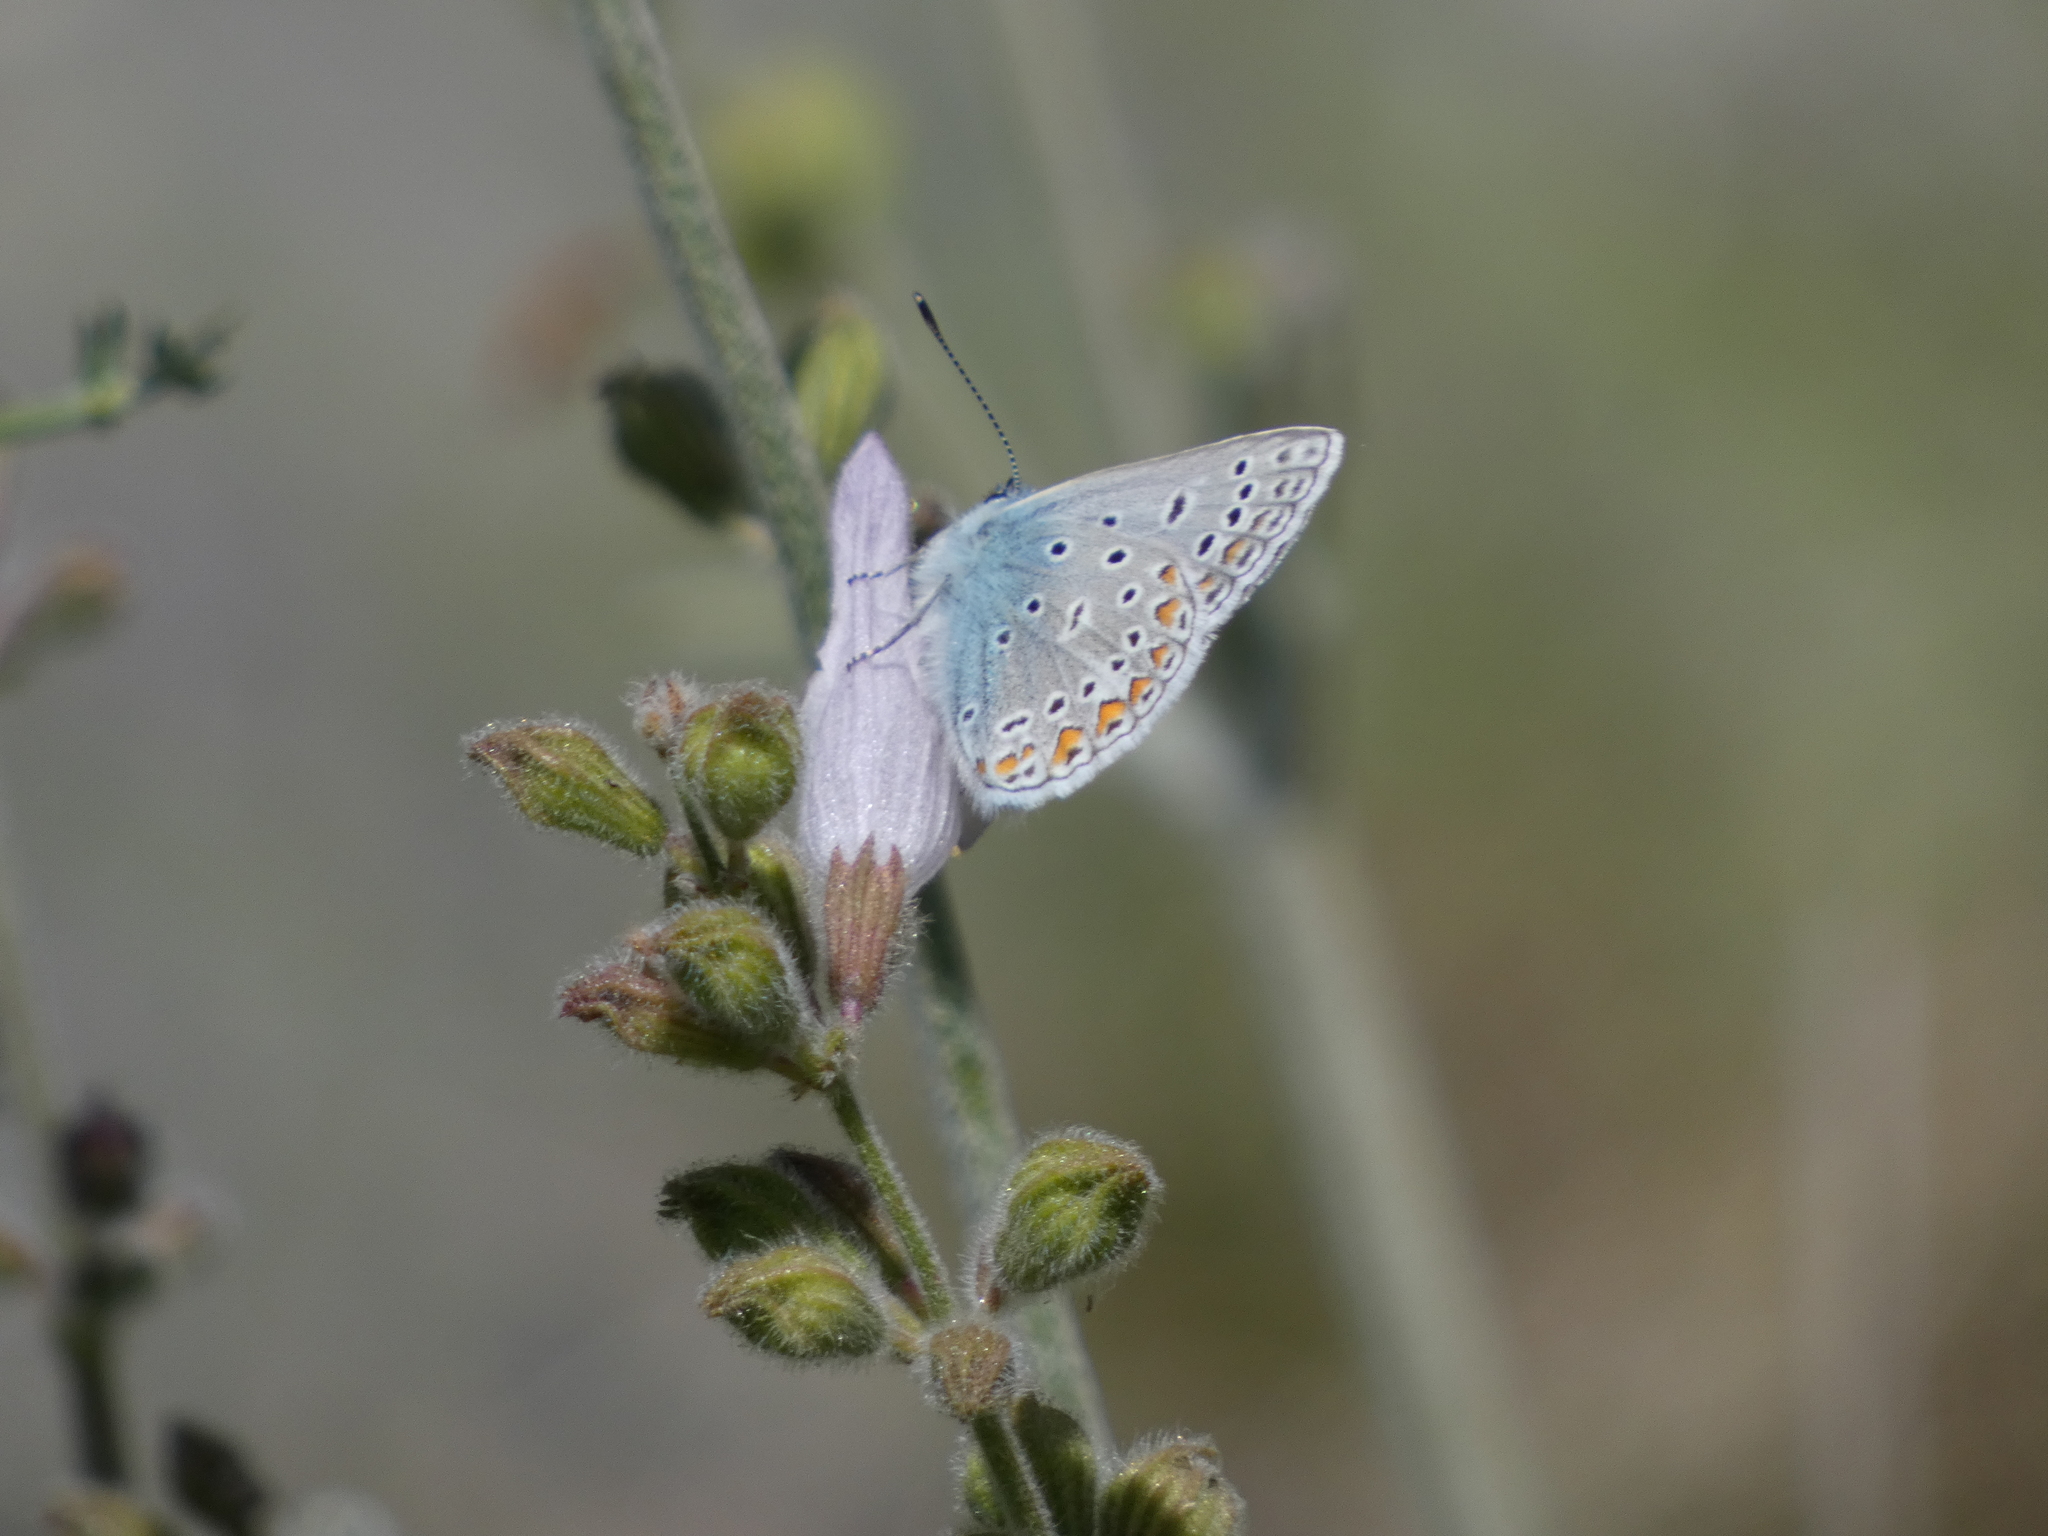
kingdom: Animalia
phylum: Arthropoda
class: Insecta
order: Lepidoptera
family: Lycaenidae
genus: Polyommatus
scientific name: Polyommatus icarus
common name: Common blue
